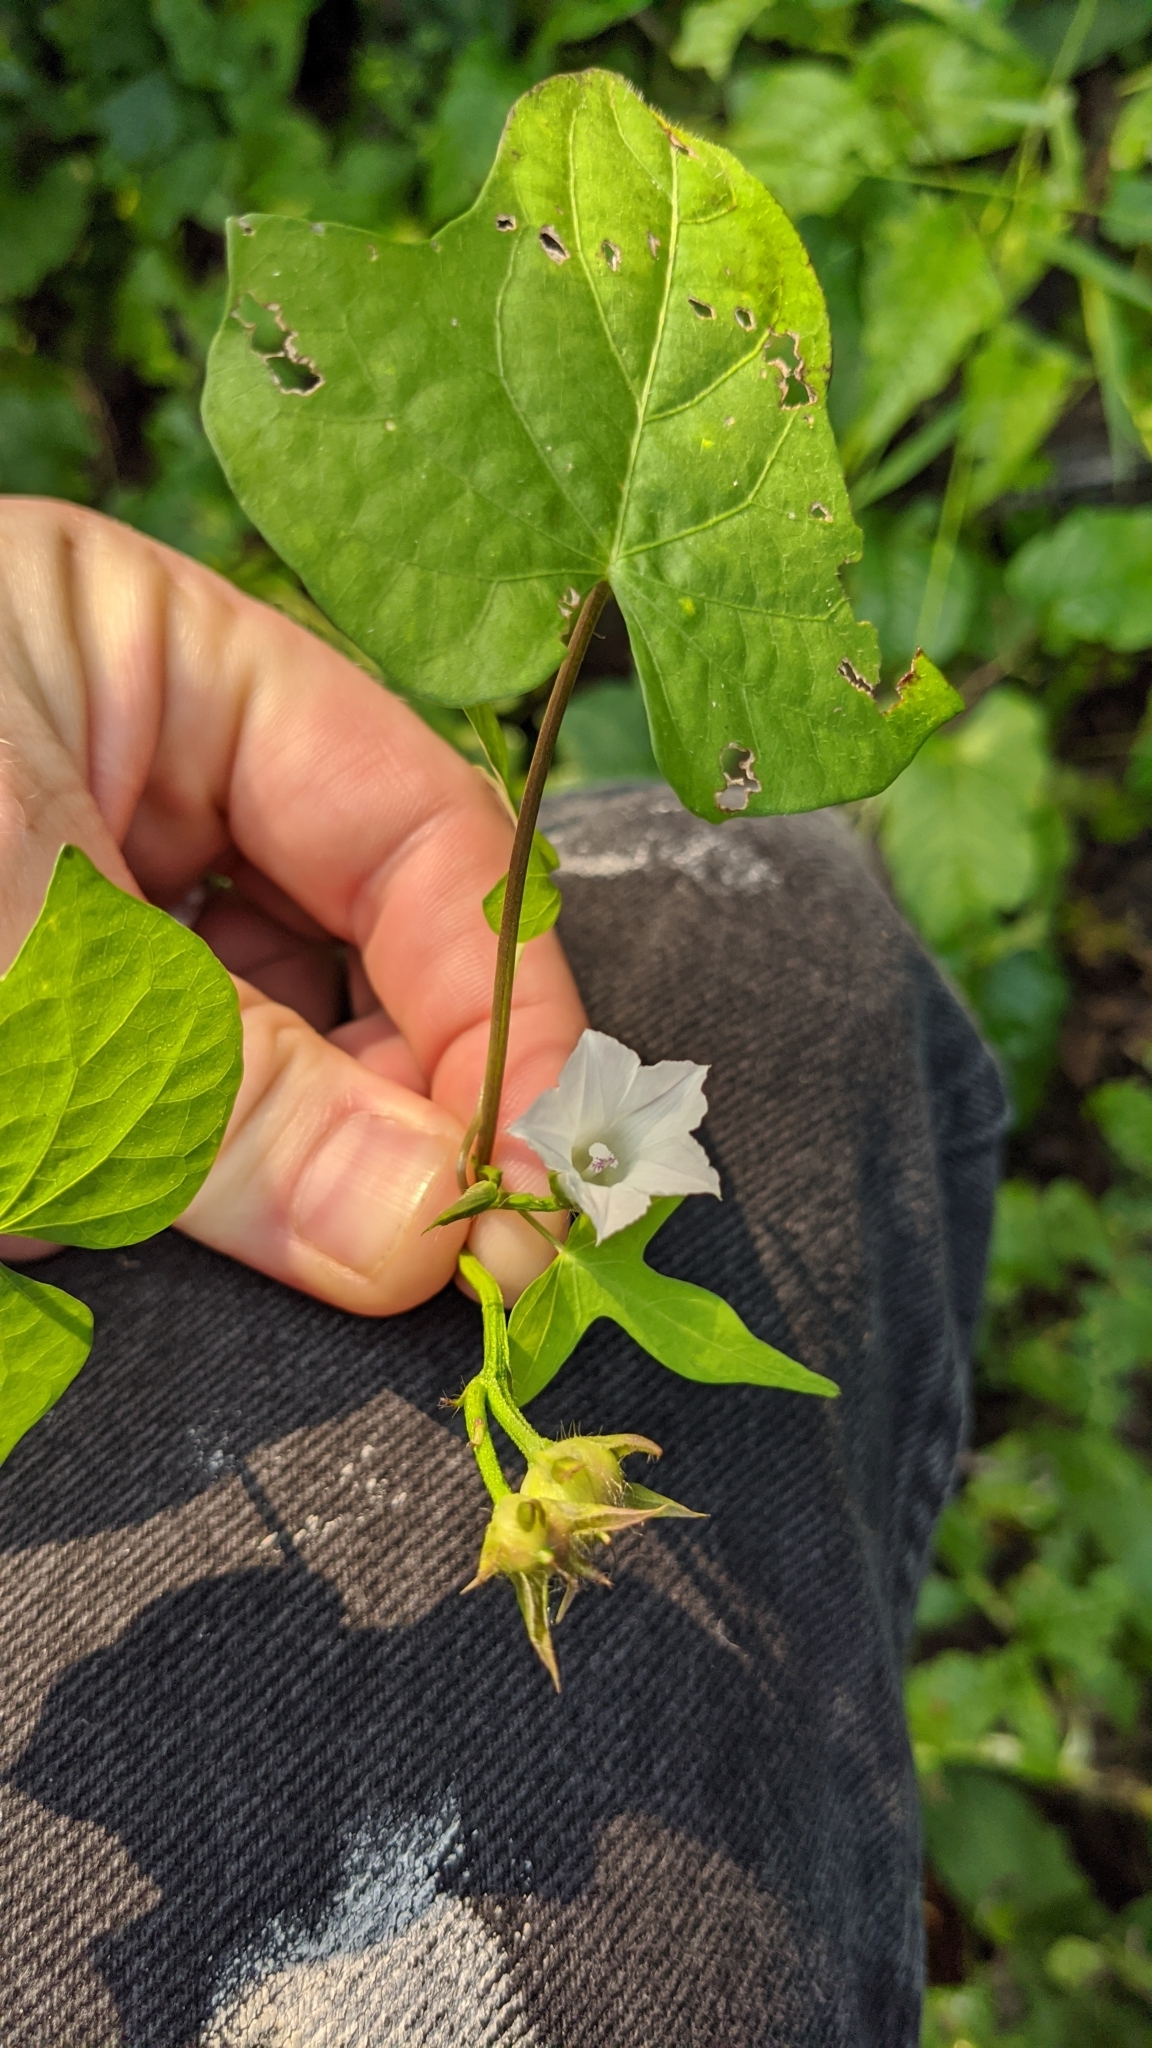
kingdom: Plantae
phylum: Tracheophyta
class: Magnoliopsida
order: Solanales
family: Convolvulaceae
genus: Ipomoea
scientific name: Ipomoea lacunosa
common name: White morning-glory
